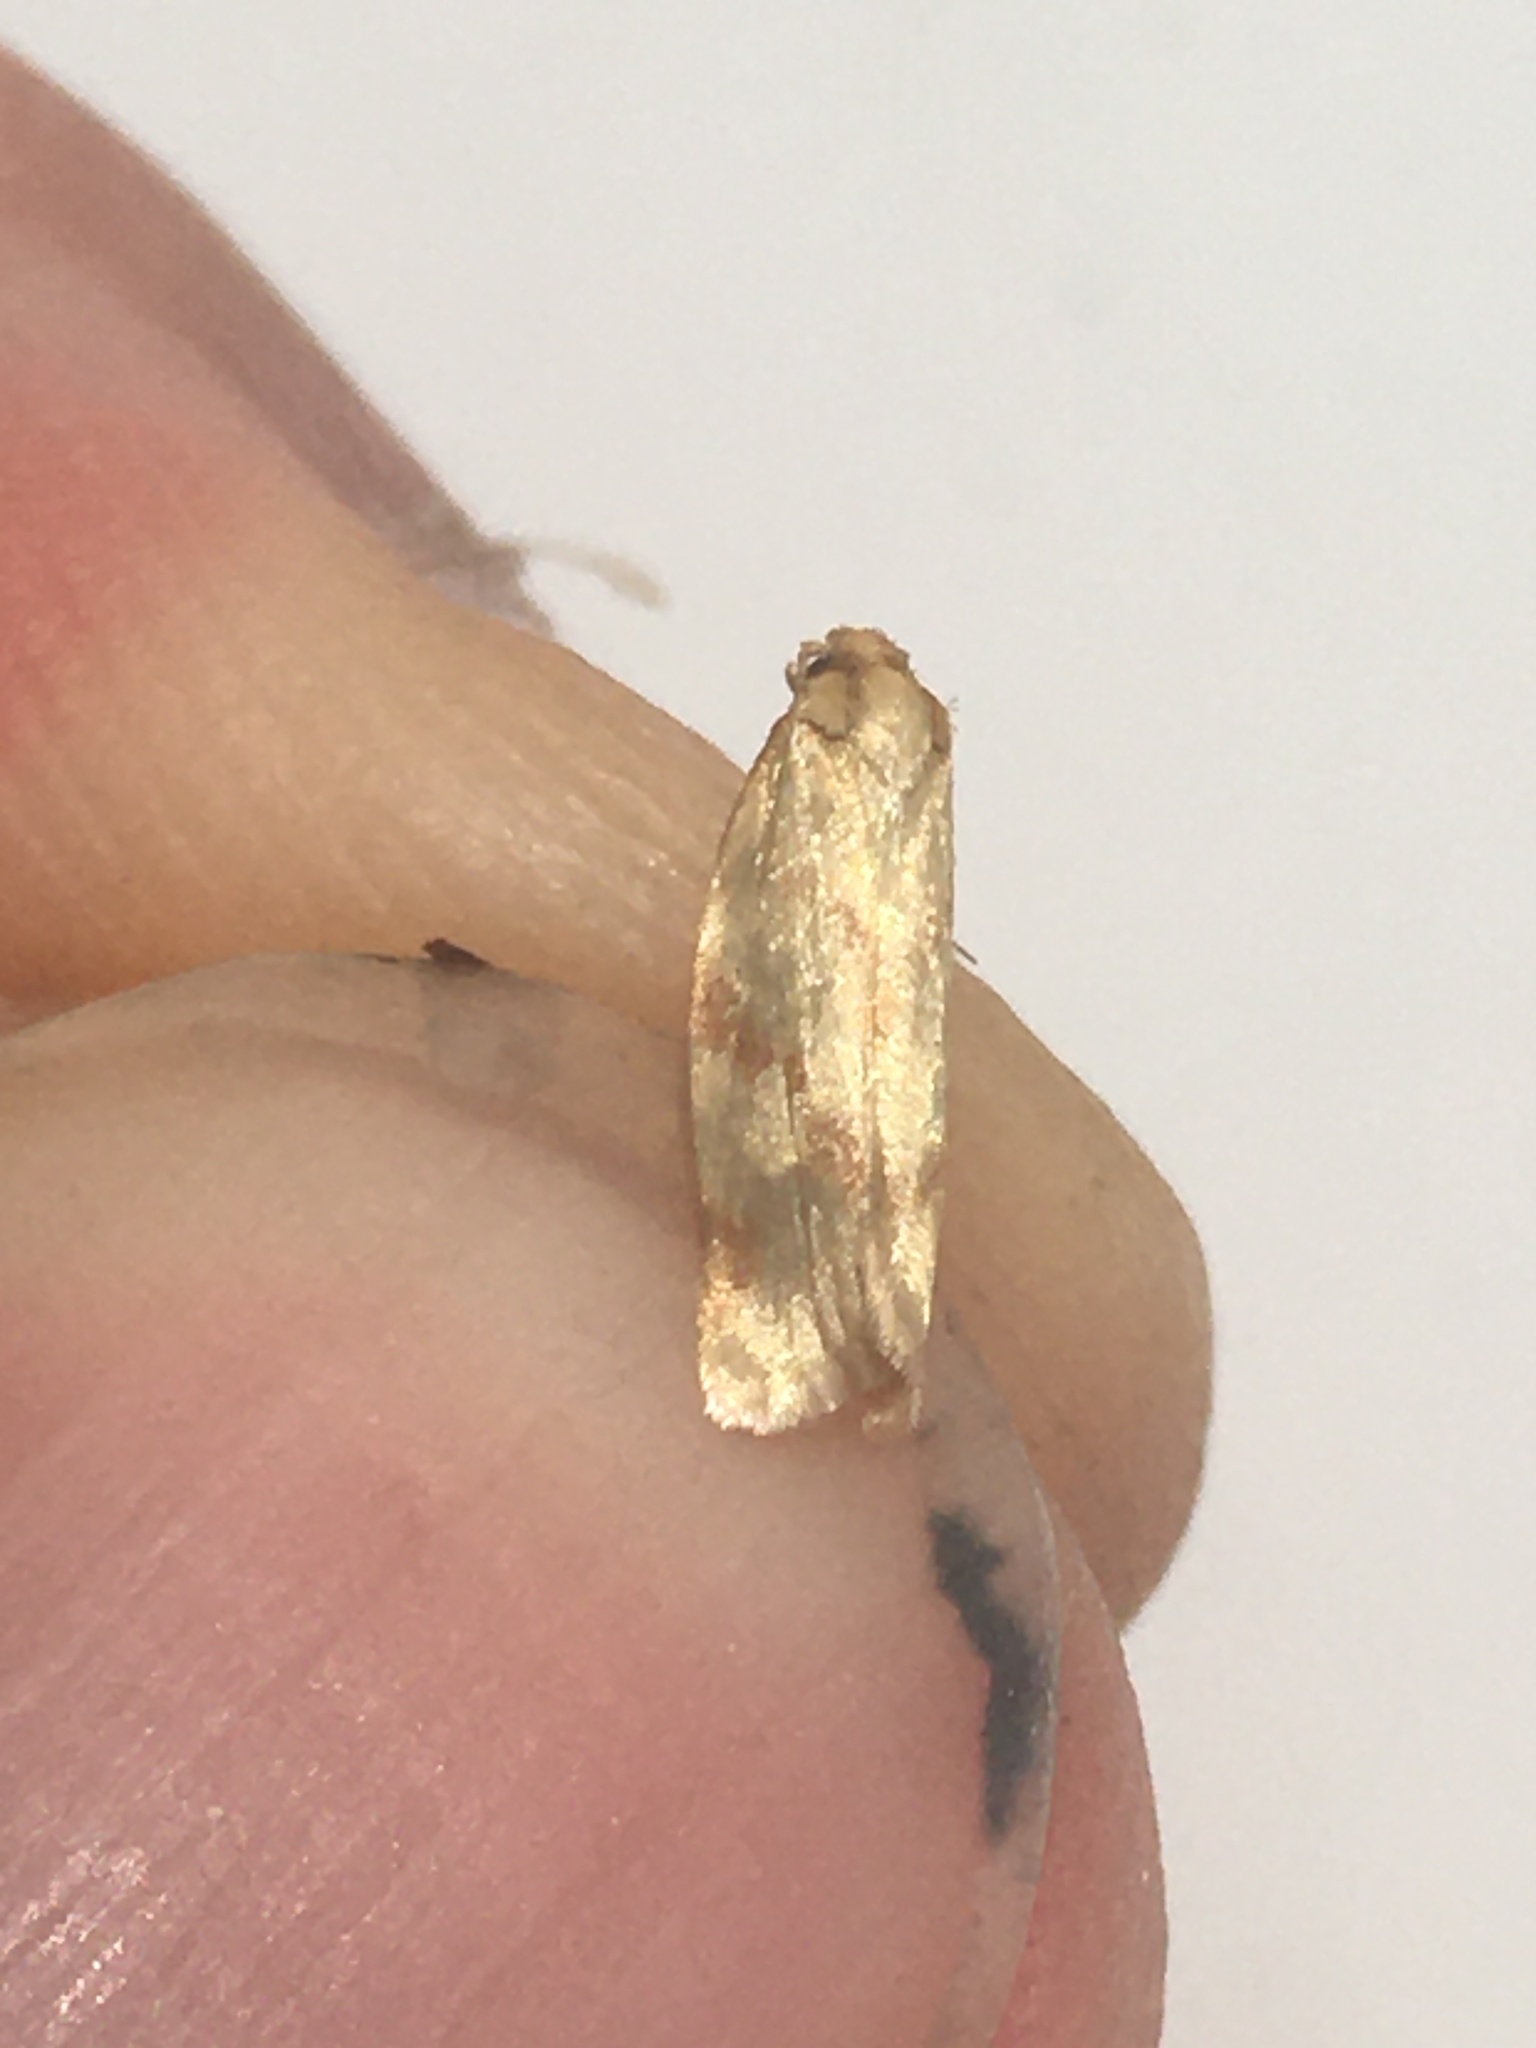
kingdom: Animalia
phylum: Arthropoda
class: Insecta
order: Lepidoptera
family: Tortricidae
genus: Clepsis
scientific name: Clepsis pallidana
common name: Sheep's-bit conch
